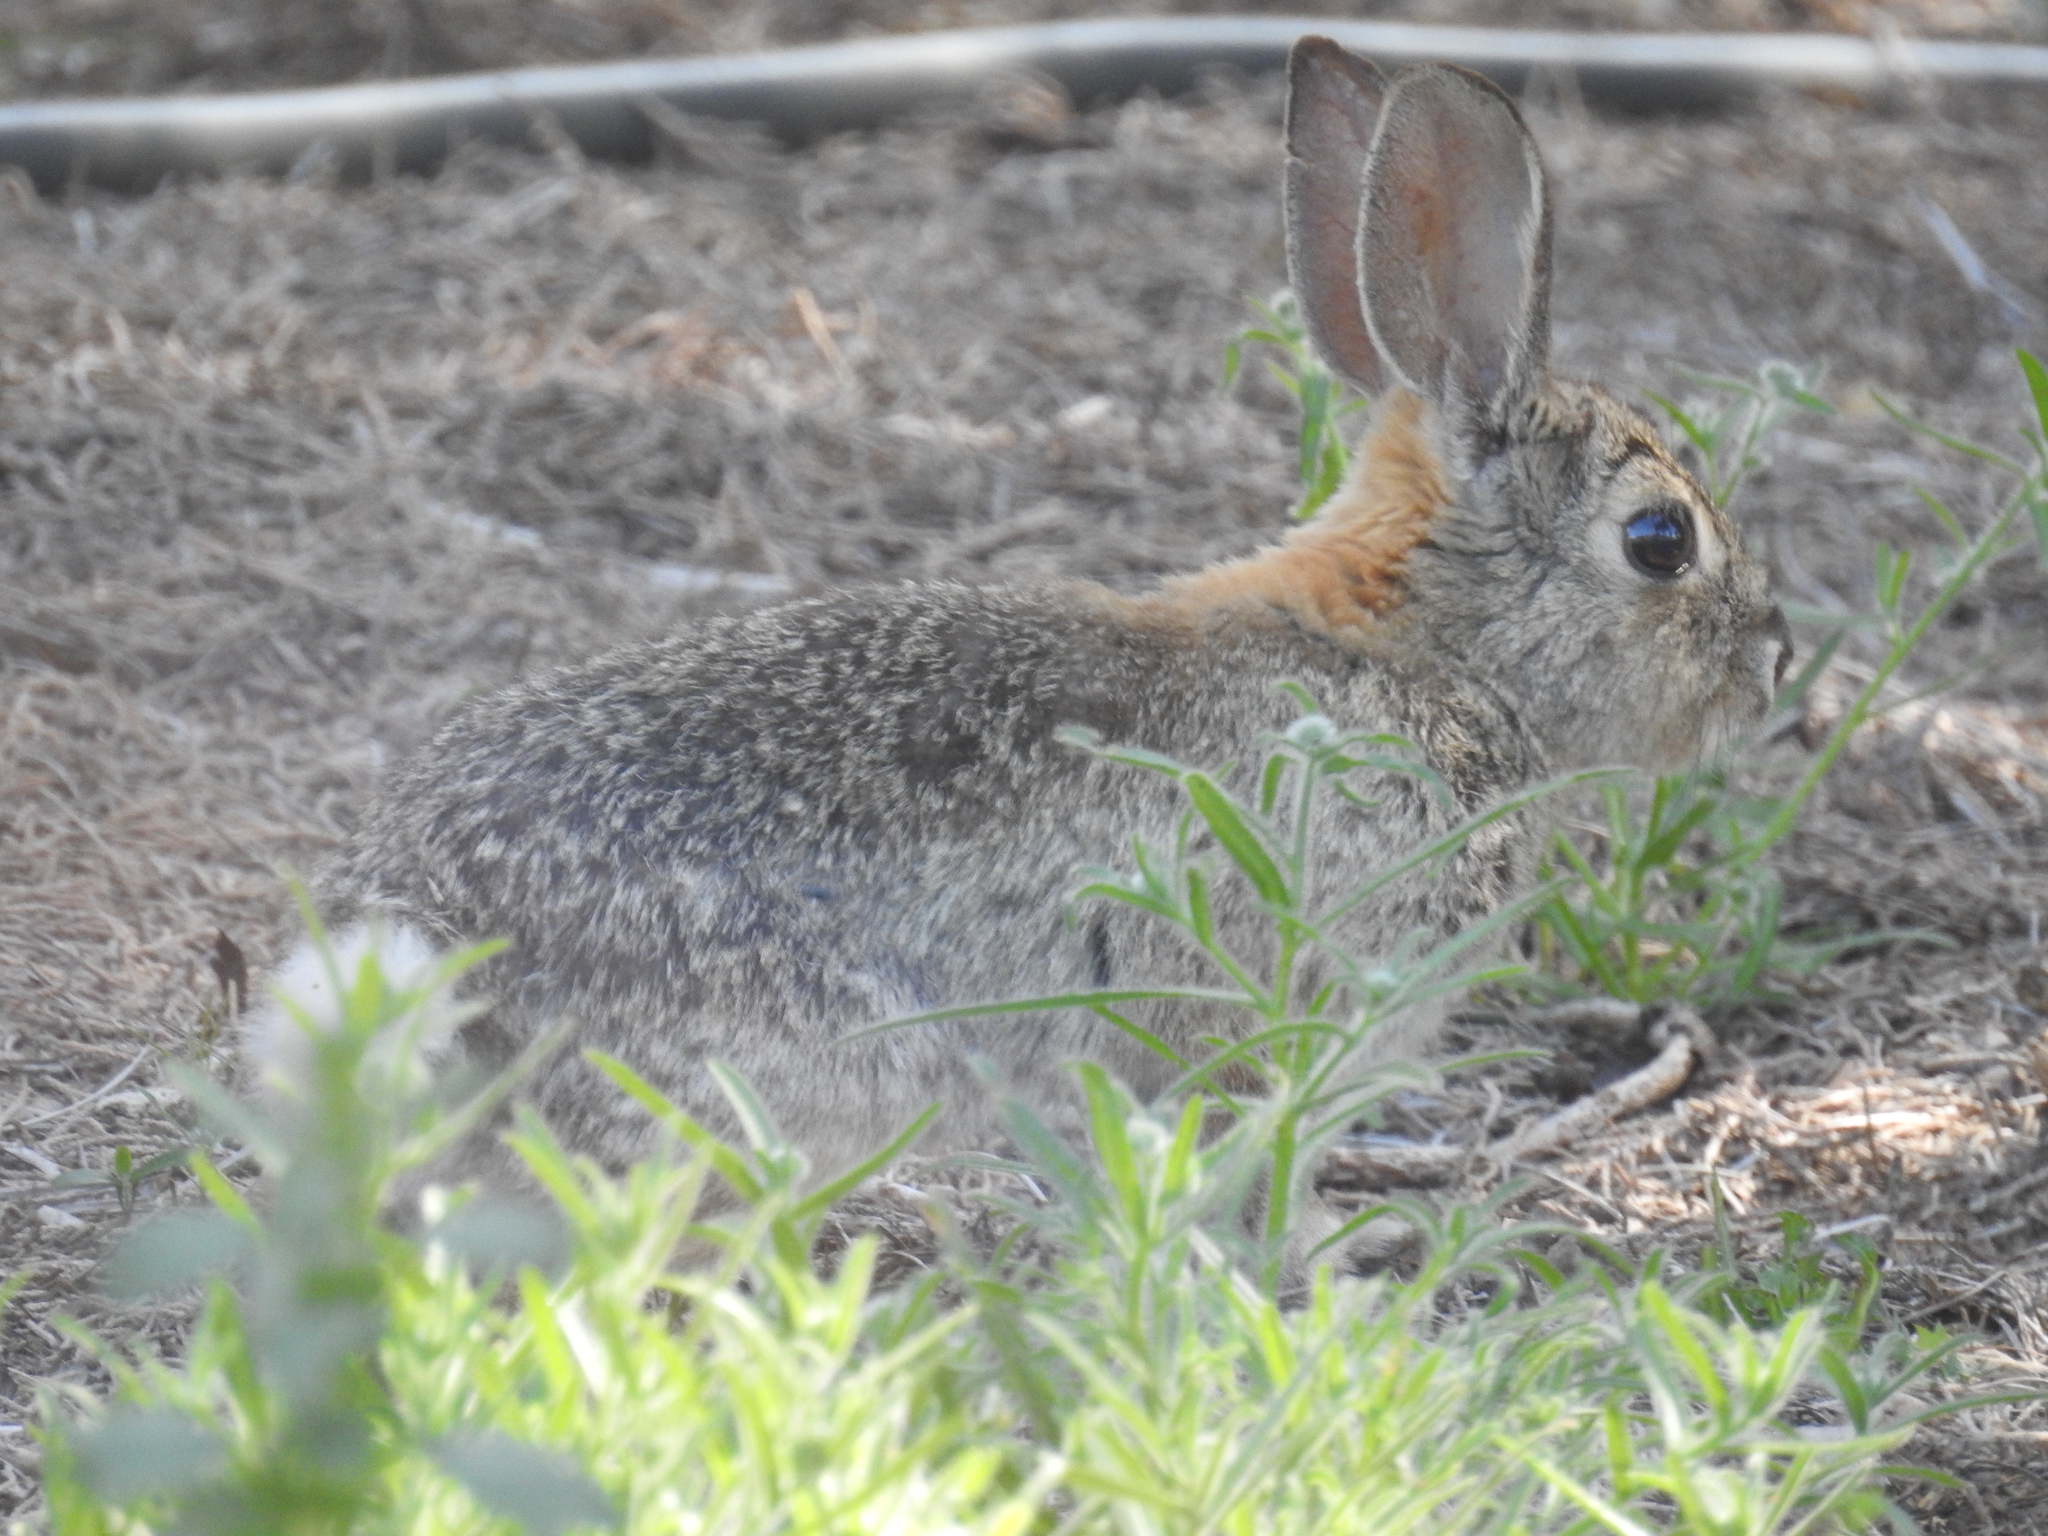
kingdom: Animalia
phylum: Chordata
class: Mammalia
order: Lagomorpha
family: Leporidae
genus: Sylvilagus
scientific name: Sylvilagus audubonii
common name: Desert cottontail
